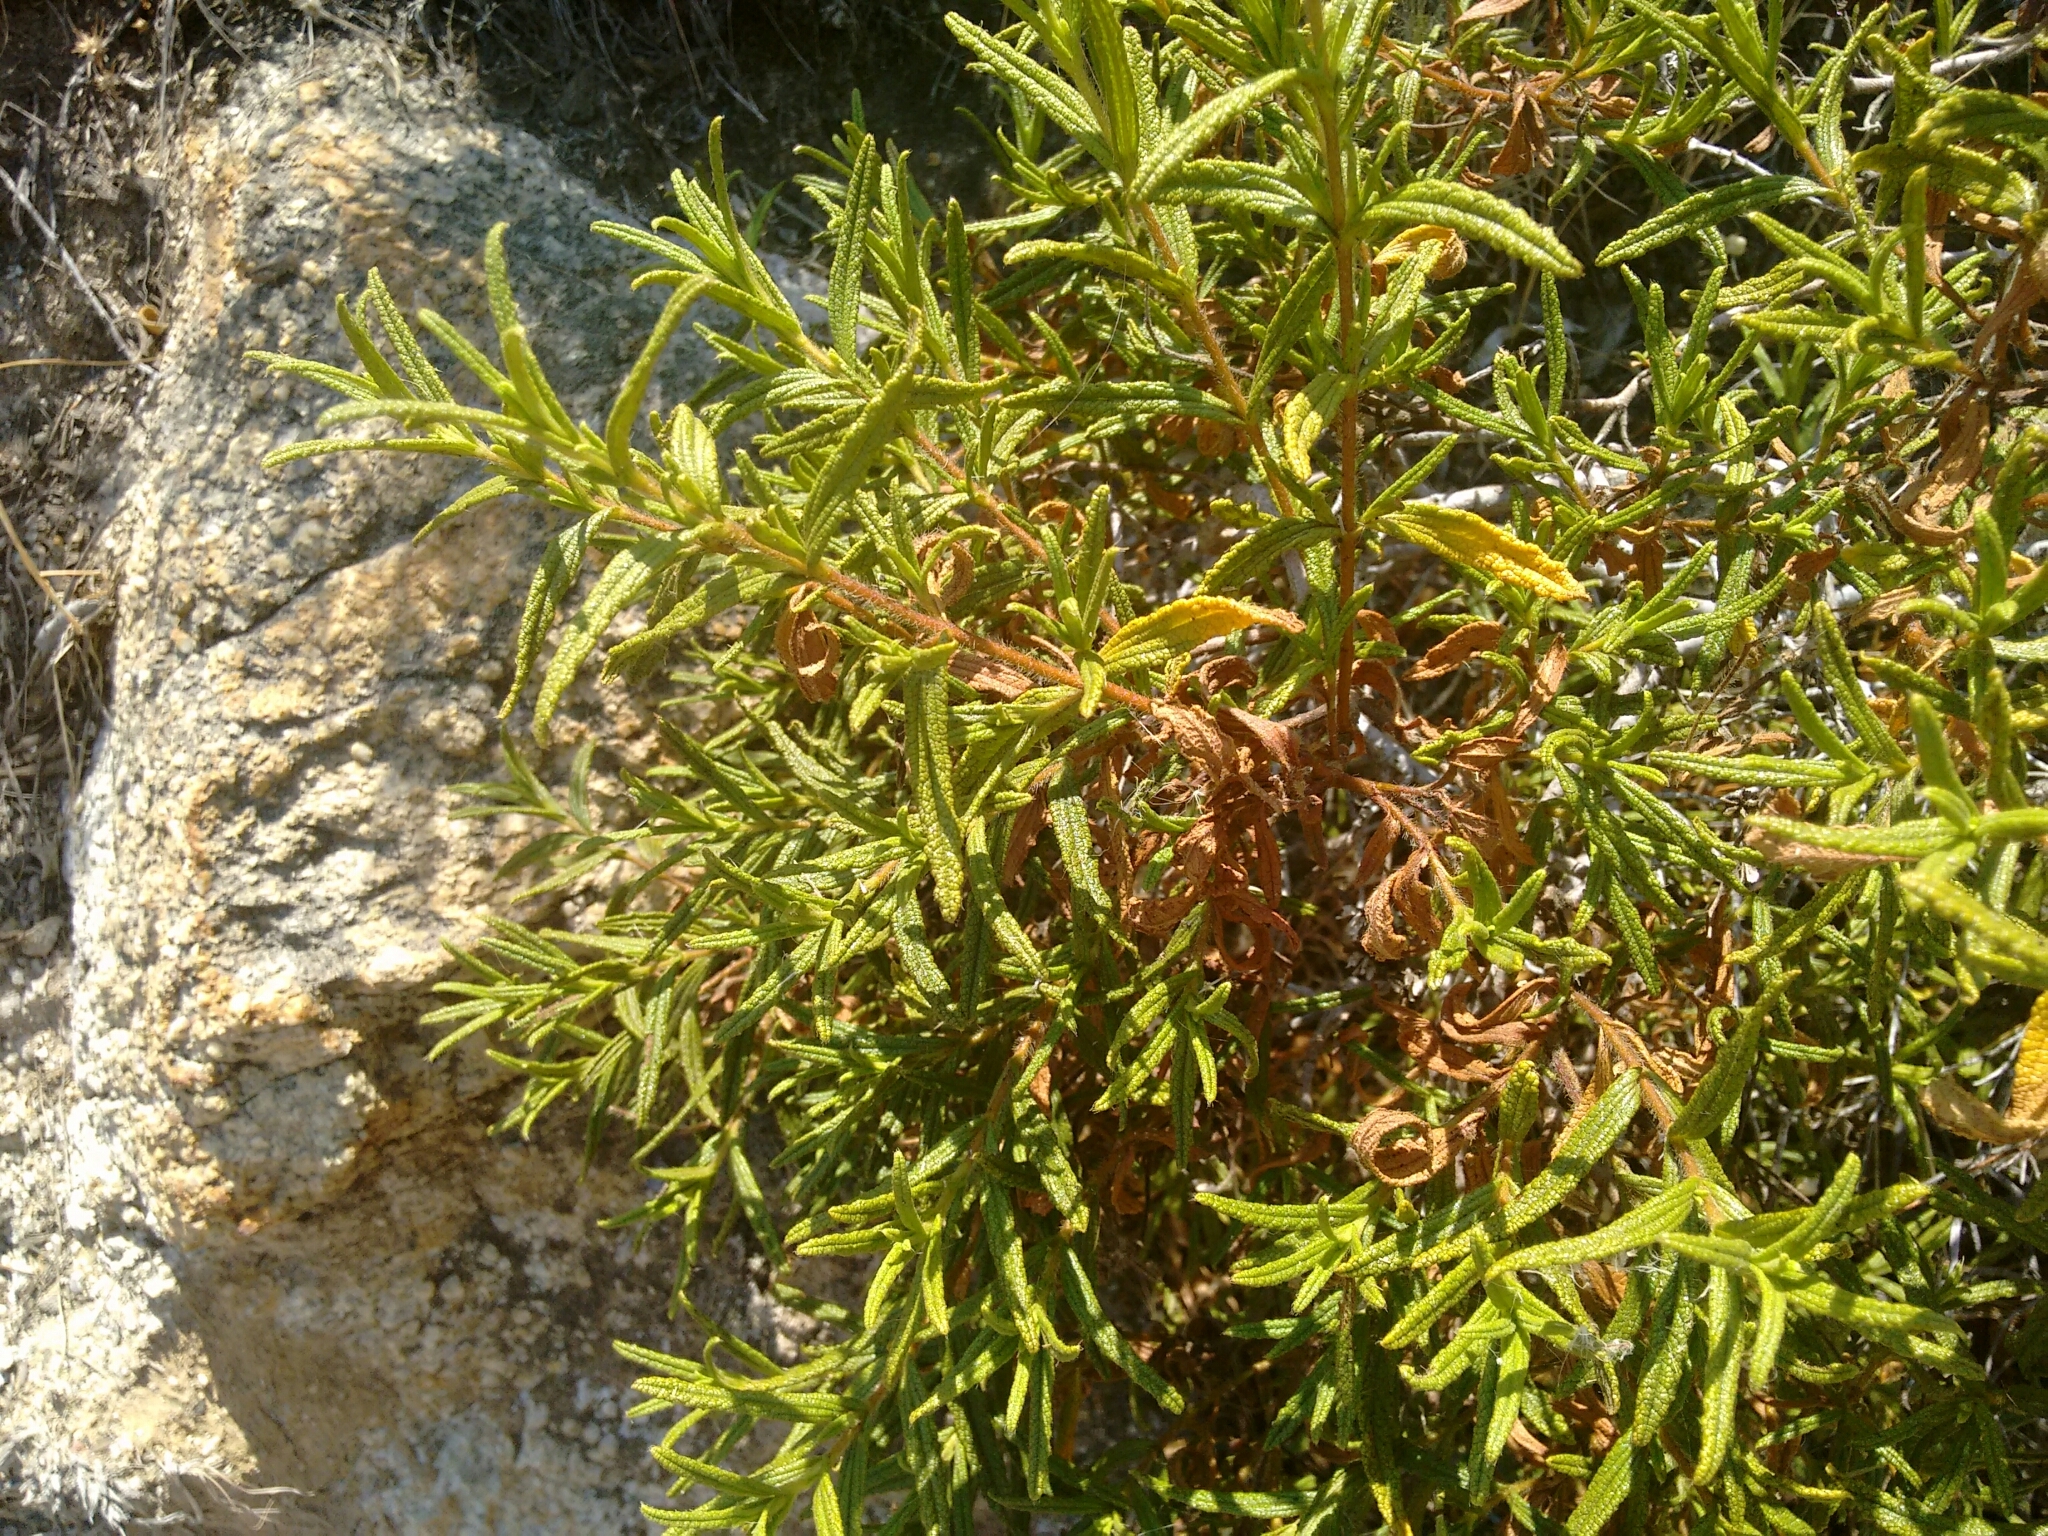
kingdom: Plantae
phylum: Tracheophyta
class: Magnoliopsida
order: Malvales
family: Cistaceae
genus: Cistus
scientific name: Cistus monspeliensis
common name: Montpelier cistus
